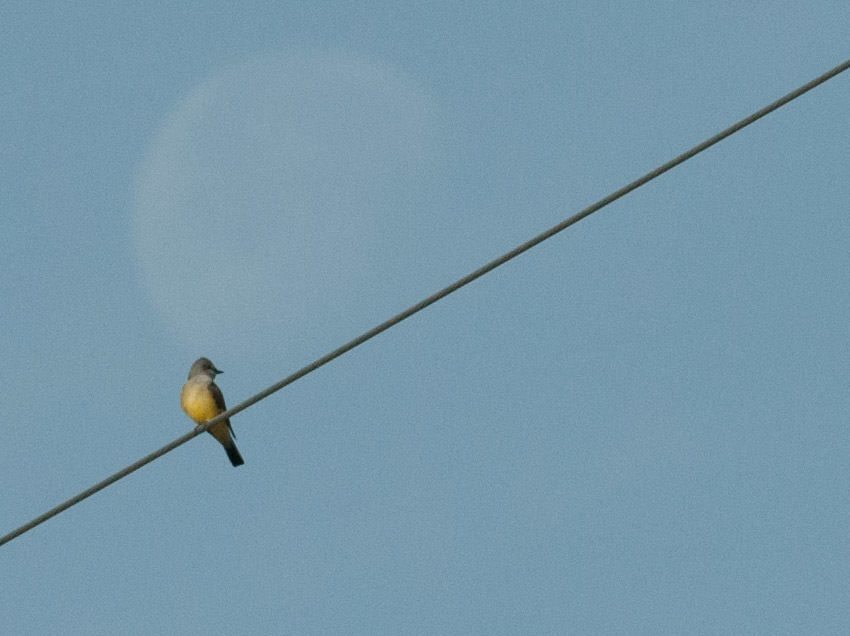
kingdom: Animalia
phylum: Chordata
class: Aves
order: Passeriformes
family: Tyrannidae
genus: Tyrannus
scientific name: Tyrannus verticalis
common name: Western kingbird
